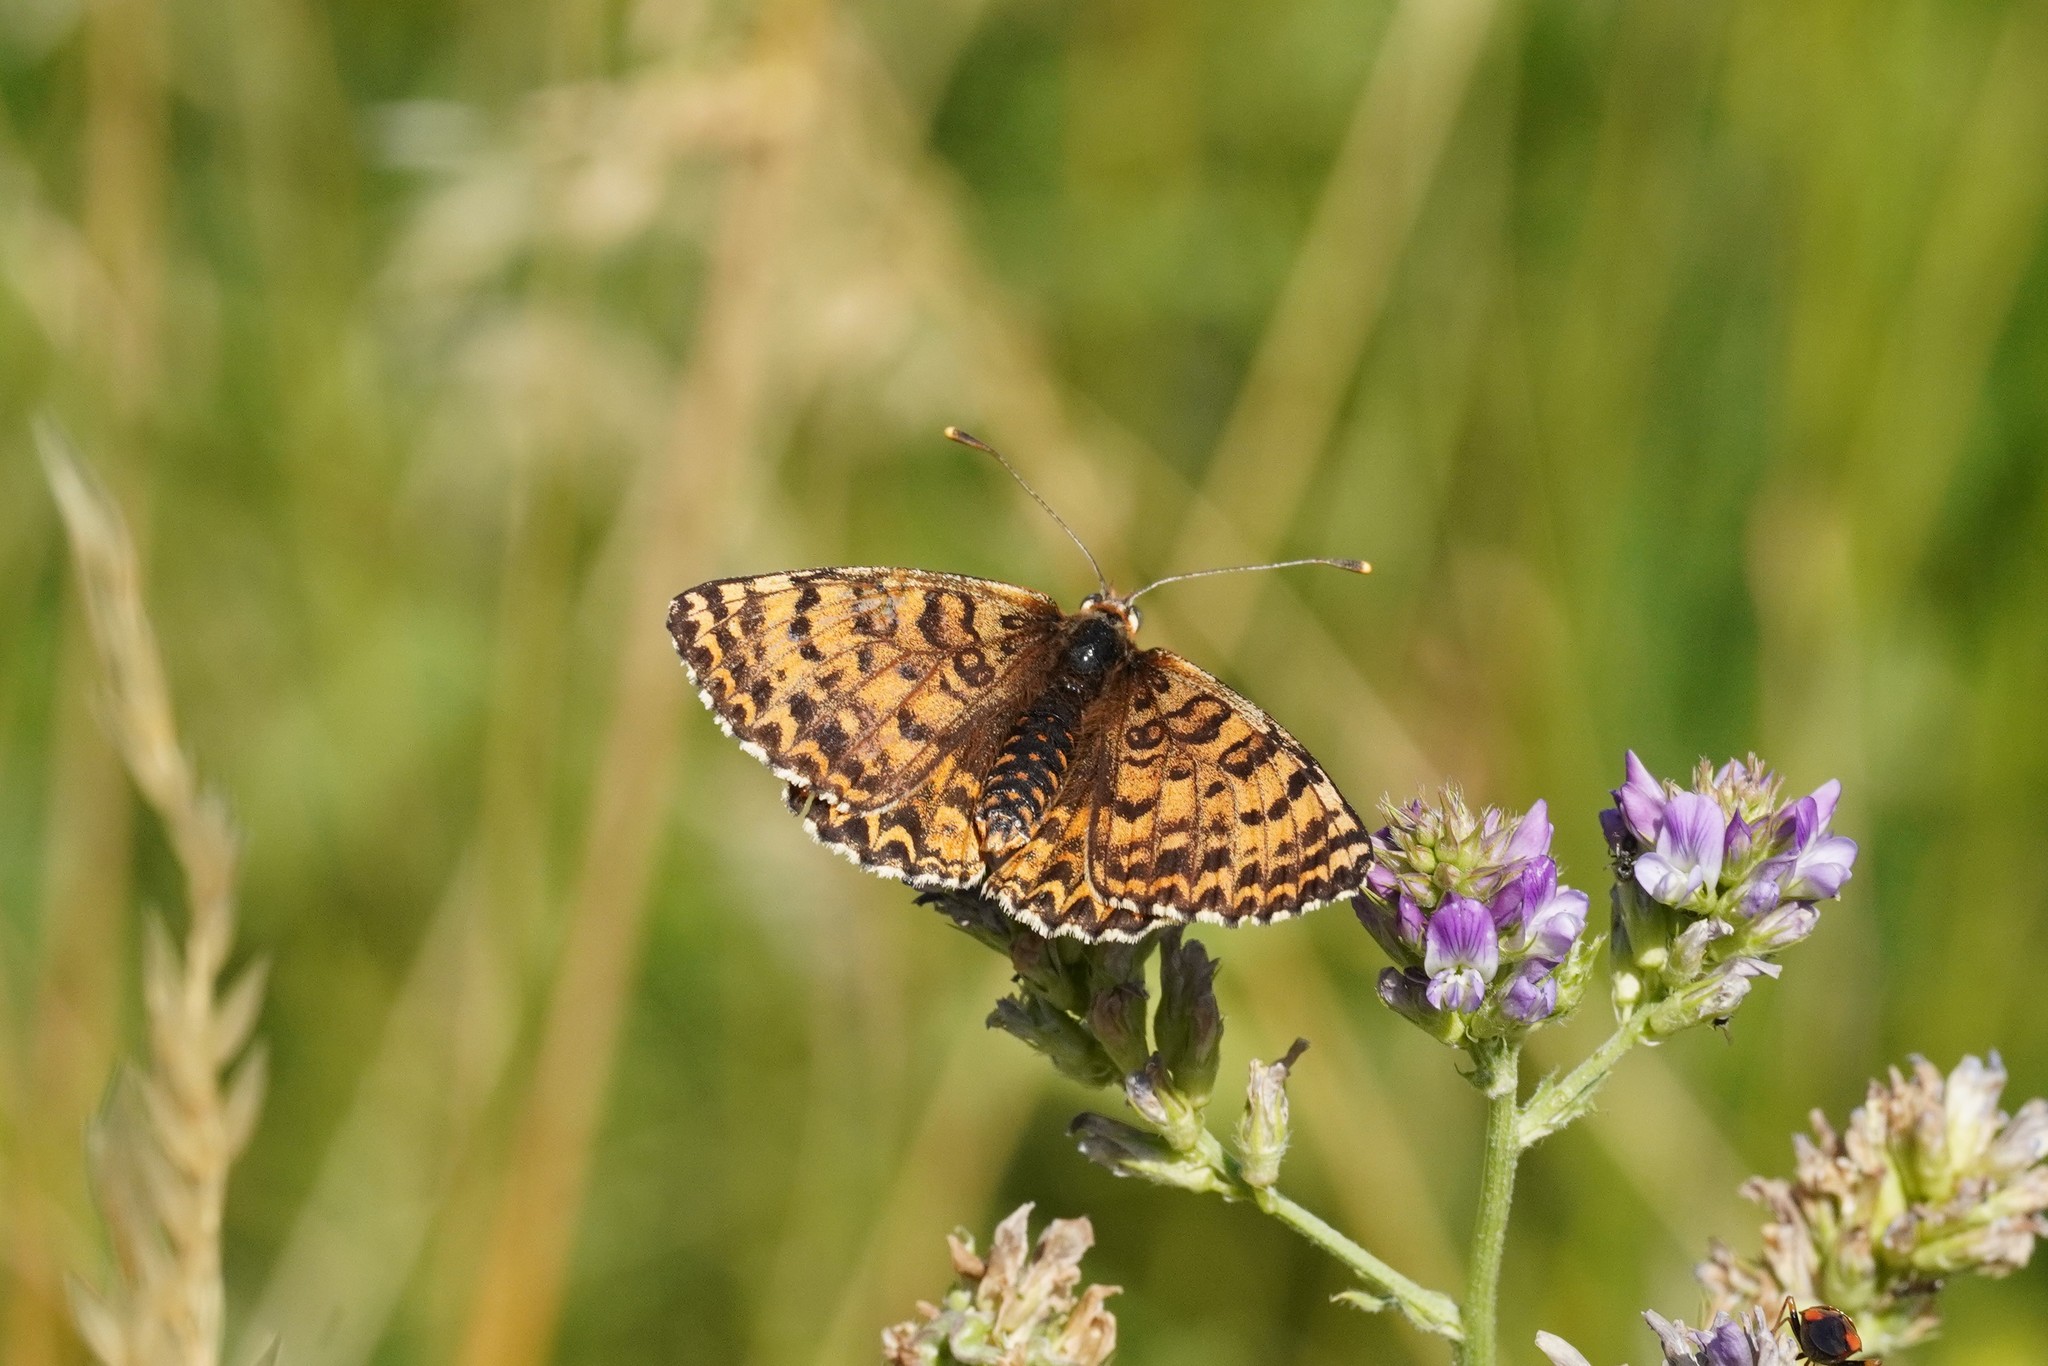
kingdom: Animalia
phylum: Arthropoda
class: Insecta
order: Lepidoptera
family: Nymphalidae
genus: Melitaea
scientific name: Melitaea didyma
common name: Spotted fritillary
